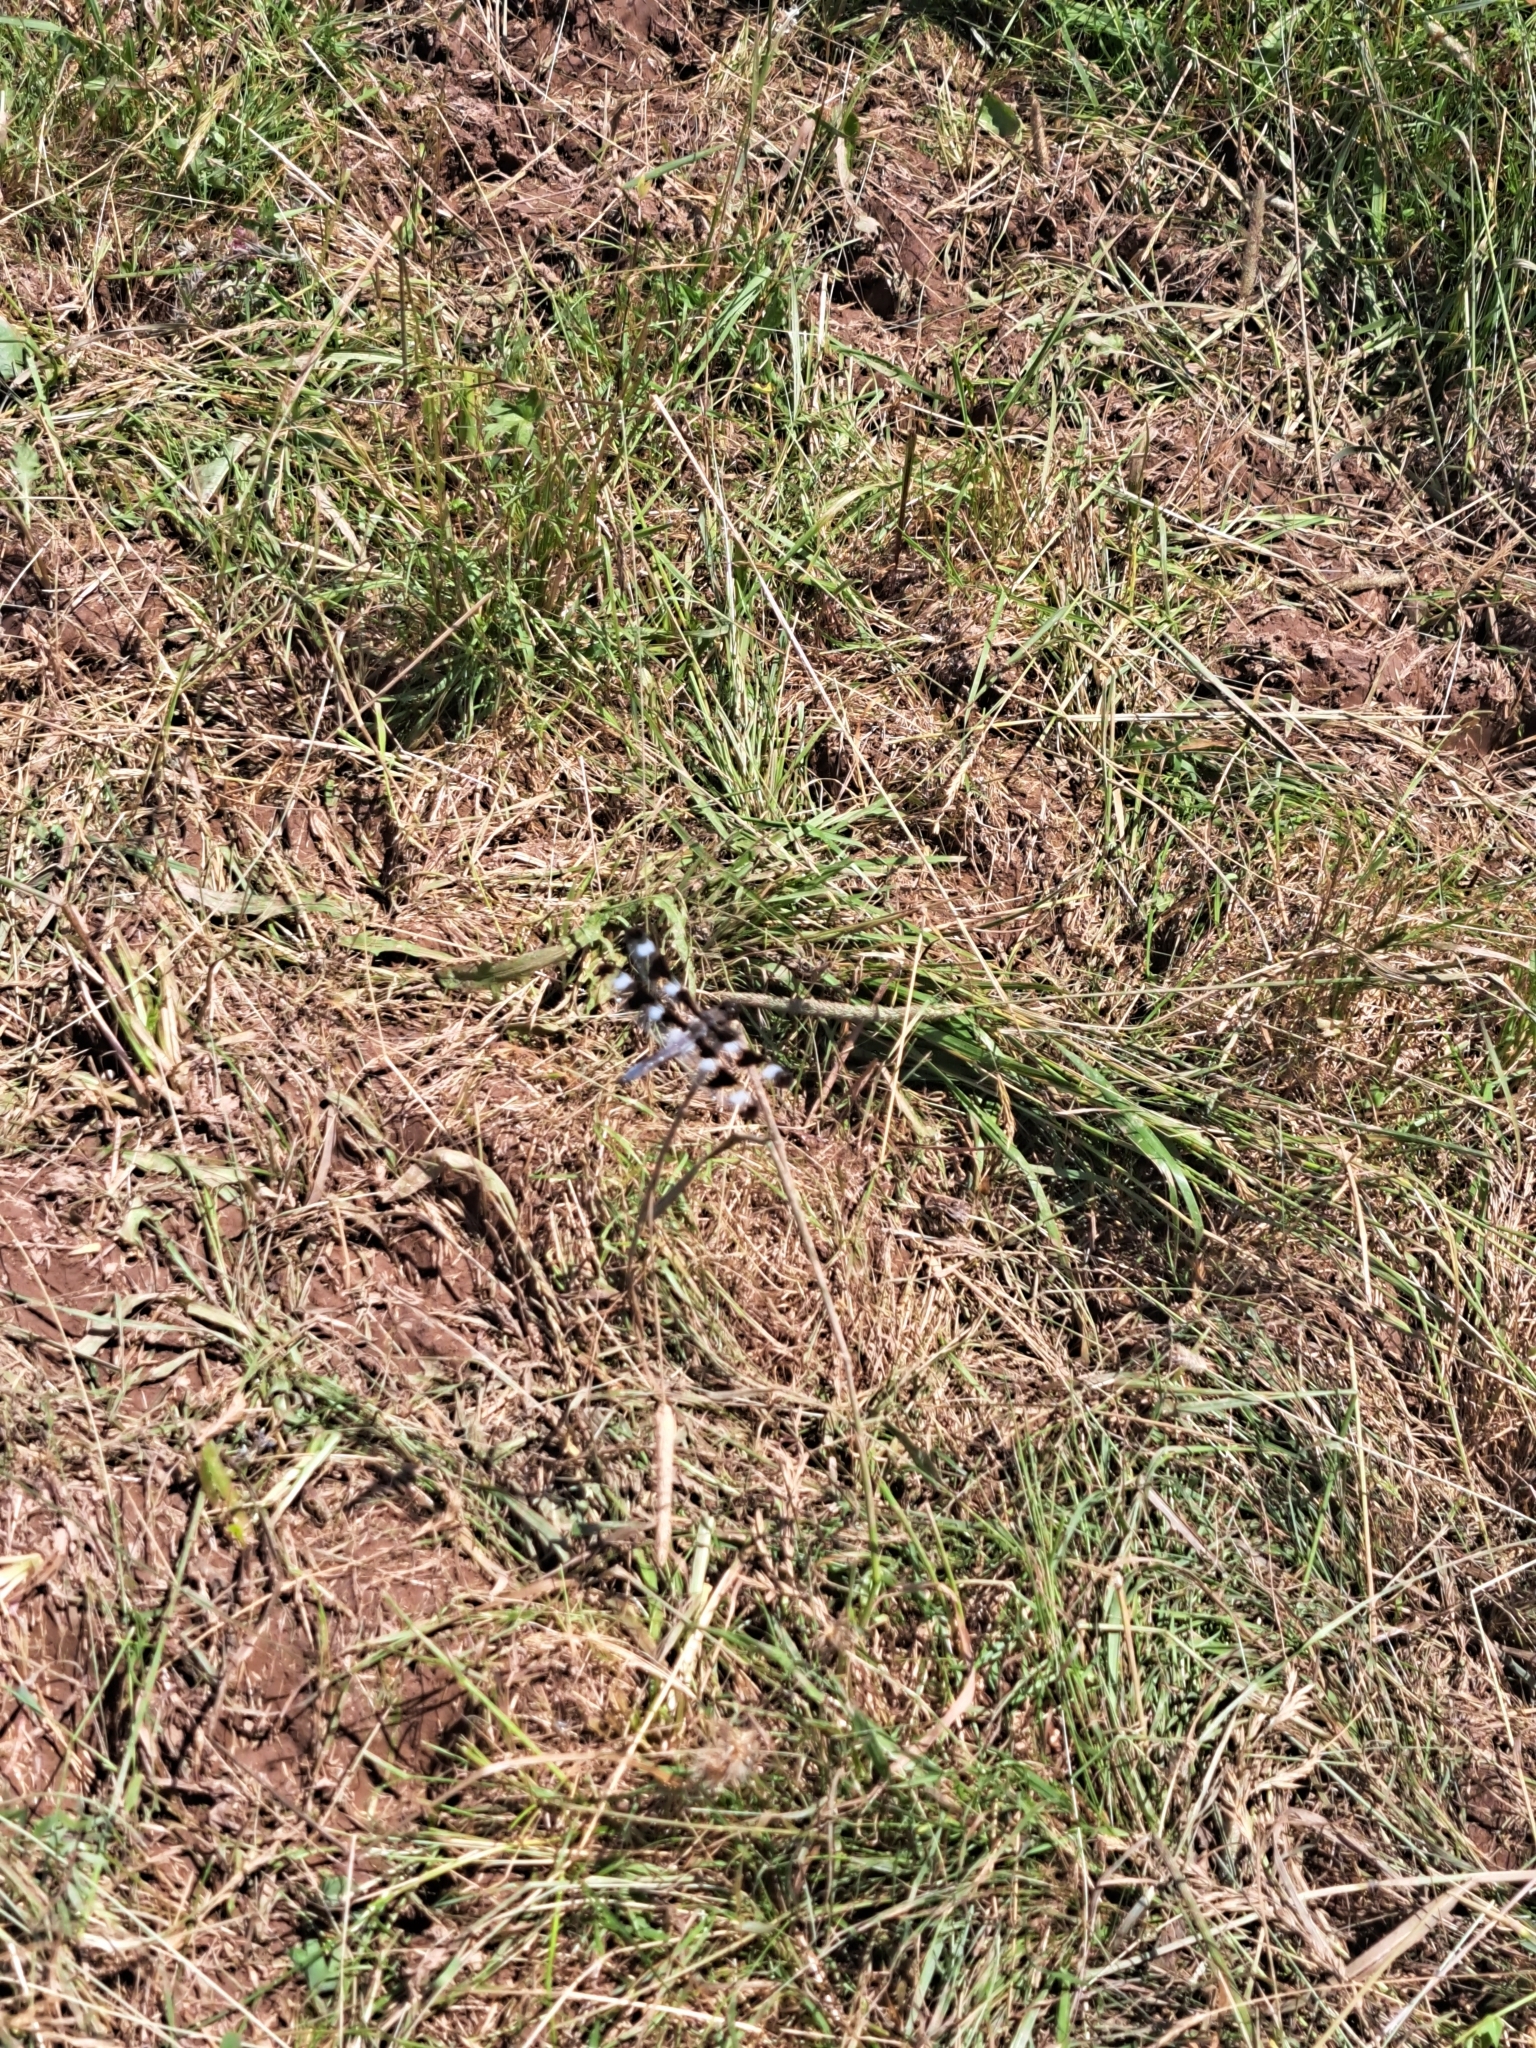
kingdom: Animalia
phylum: Arthropoda
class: Insecta
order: Odonata
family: Libellulidae
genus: Libellula
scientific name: Libellula pulchella
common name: Twelve-spotted skimmer
